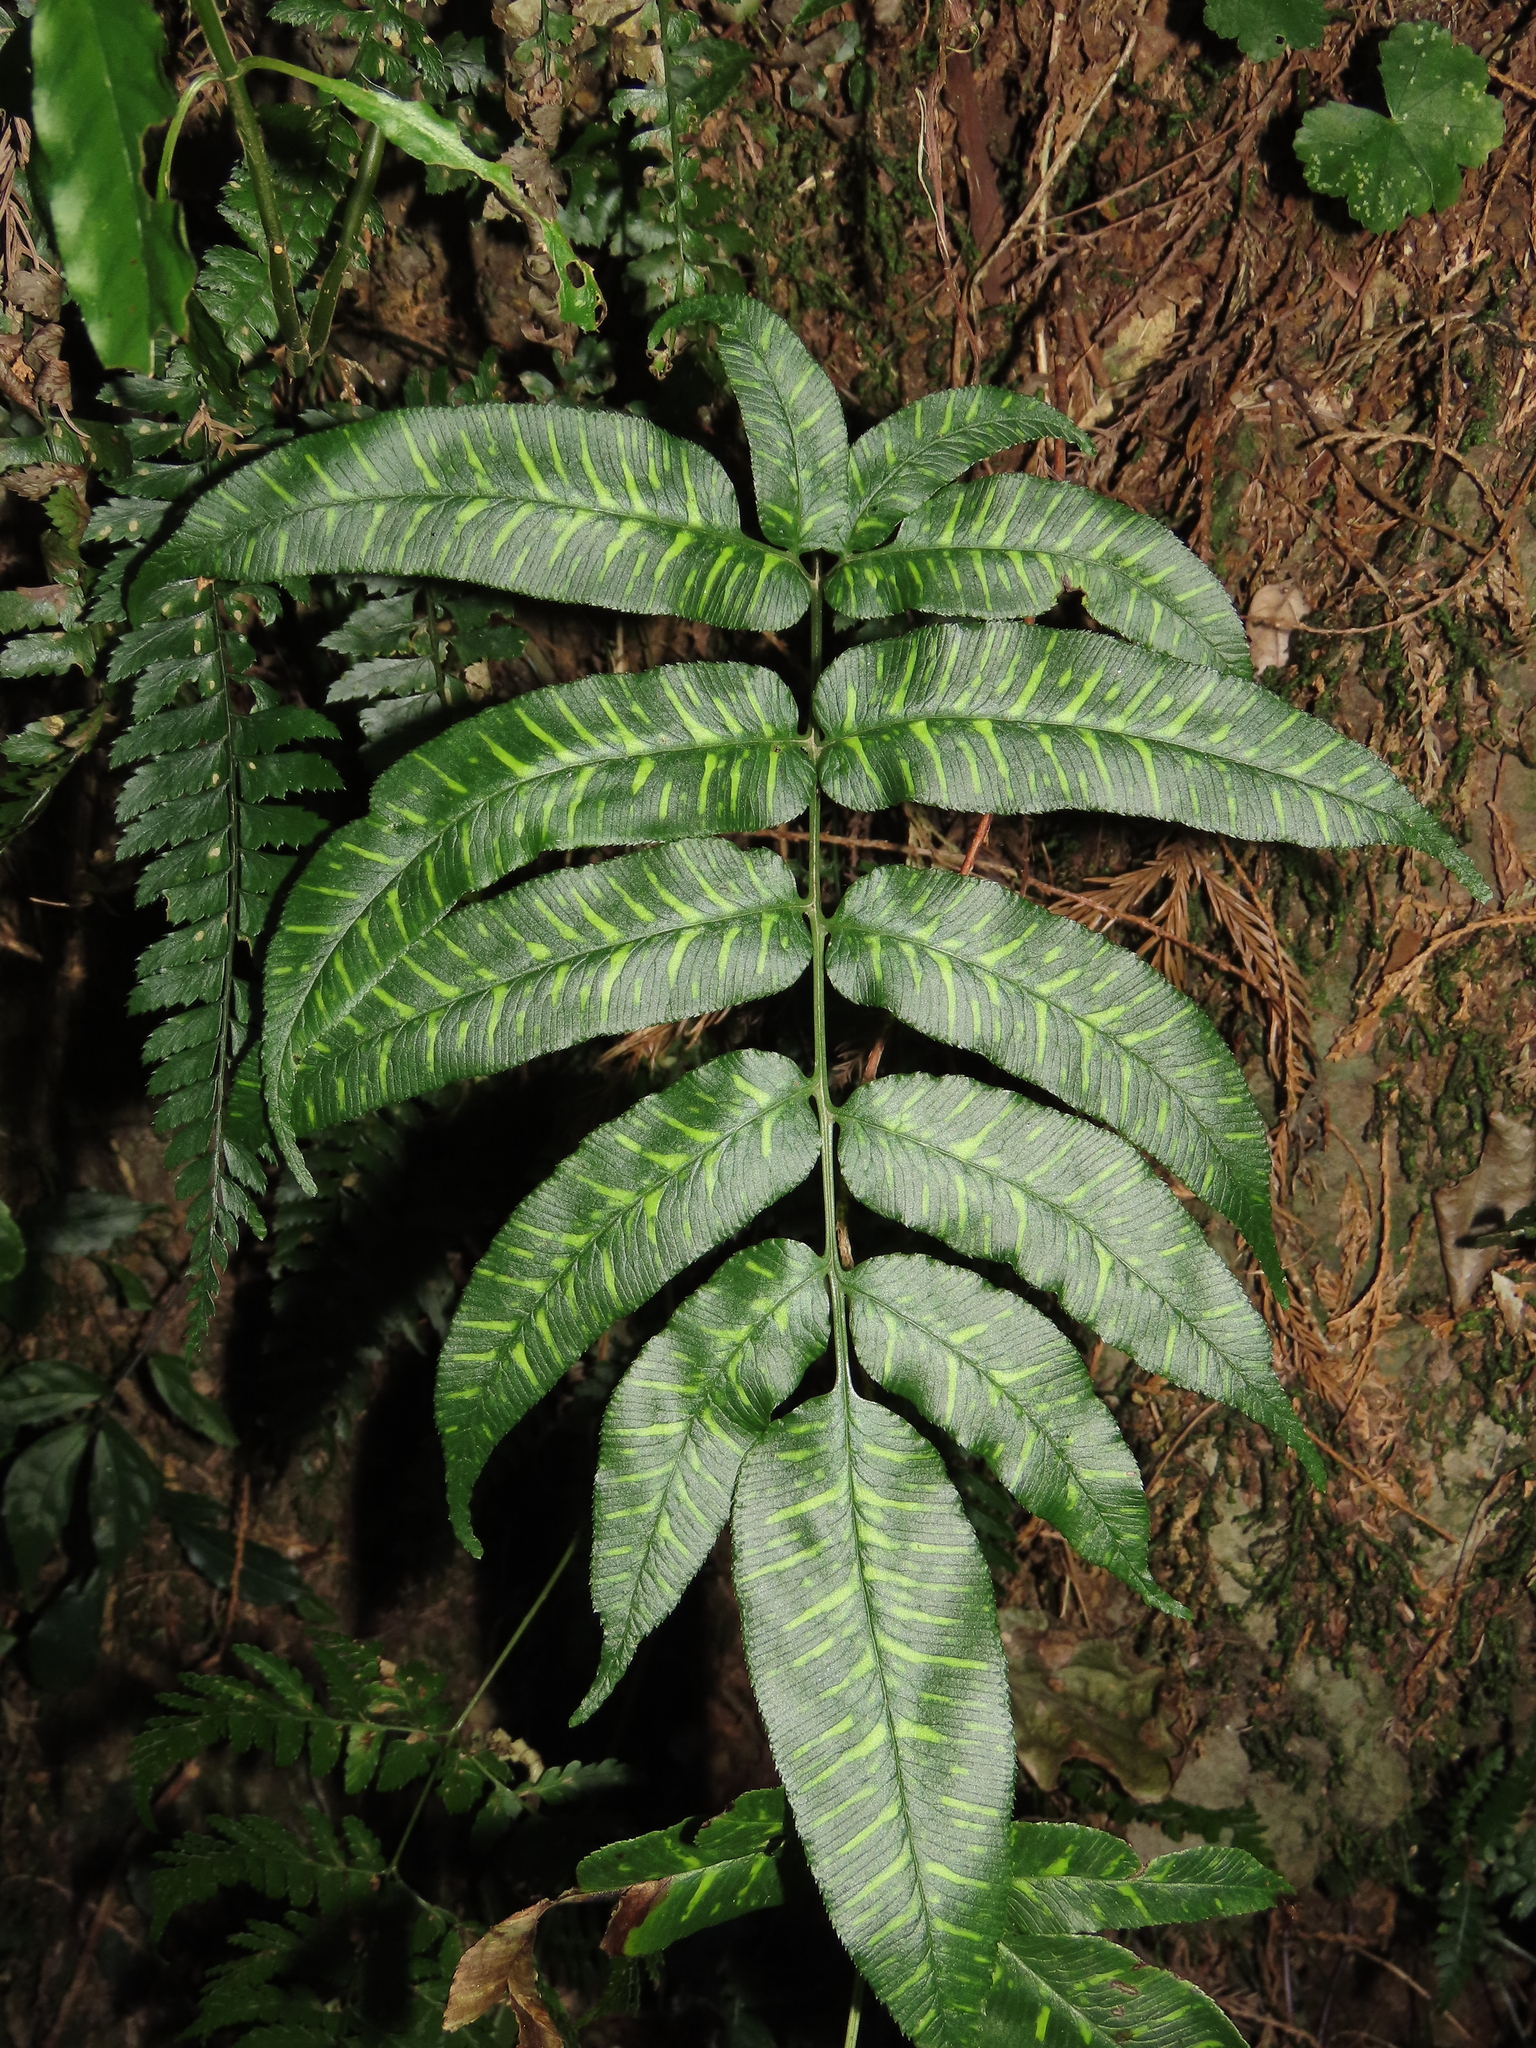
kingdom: Plantae
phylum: Tracheophyta
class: Polypodiopsida
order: Polypodiales
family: Pteridaceae
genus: Coniogramme
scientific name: Coniogramme intermedia
